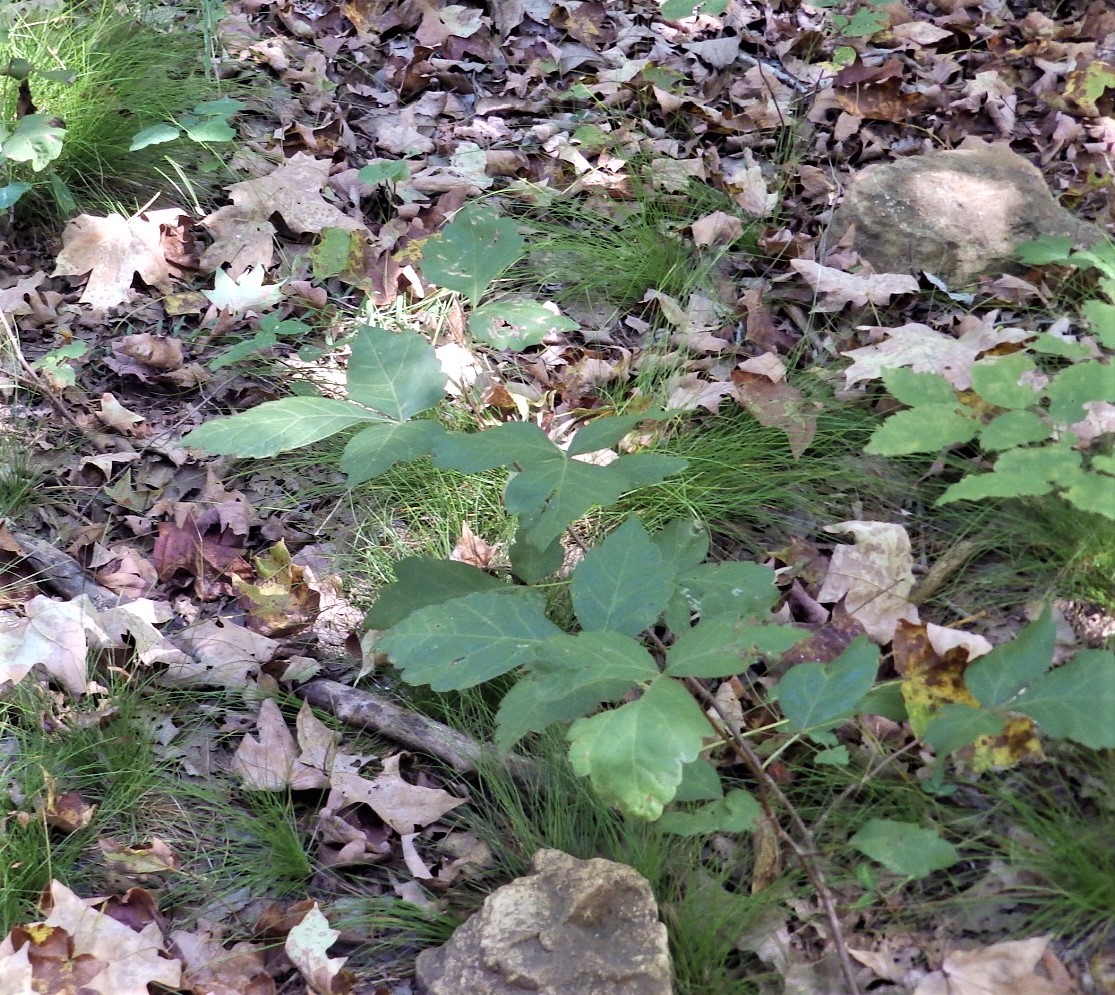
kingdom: Plantae
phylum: Tracheophyta
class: Magnoliopsida
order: Sapindales
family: Anacardiaceae
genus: Rhus
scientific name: Rhus aromatica
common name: Aromatic sumac
